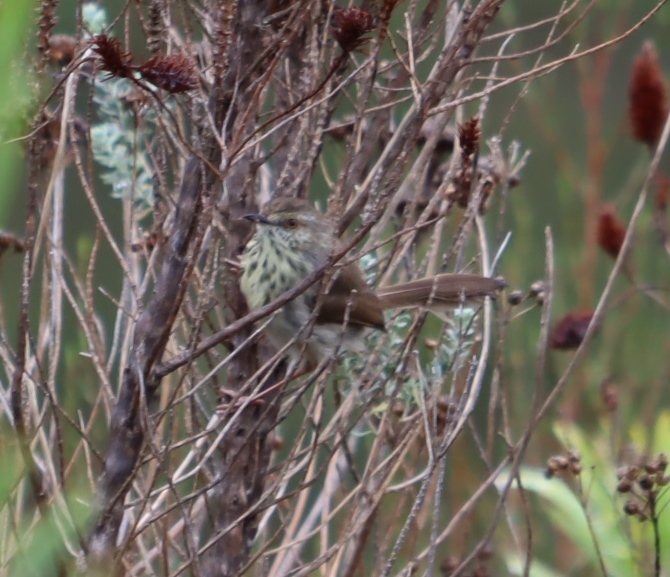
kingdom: Animalia
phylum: Chordata
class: Aves
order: Passeriformes
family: Cisticolidae
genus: Prinia
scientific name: Prinia maculosa
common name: Karoo prinia
